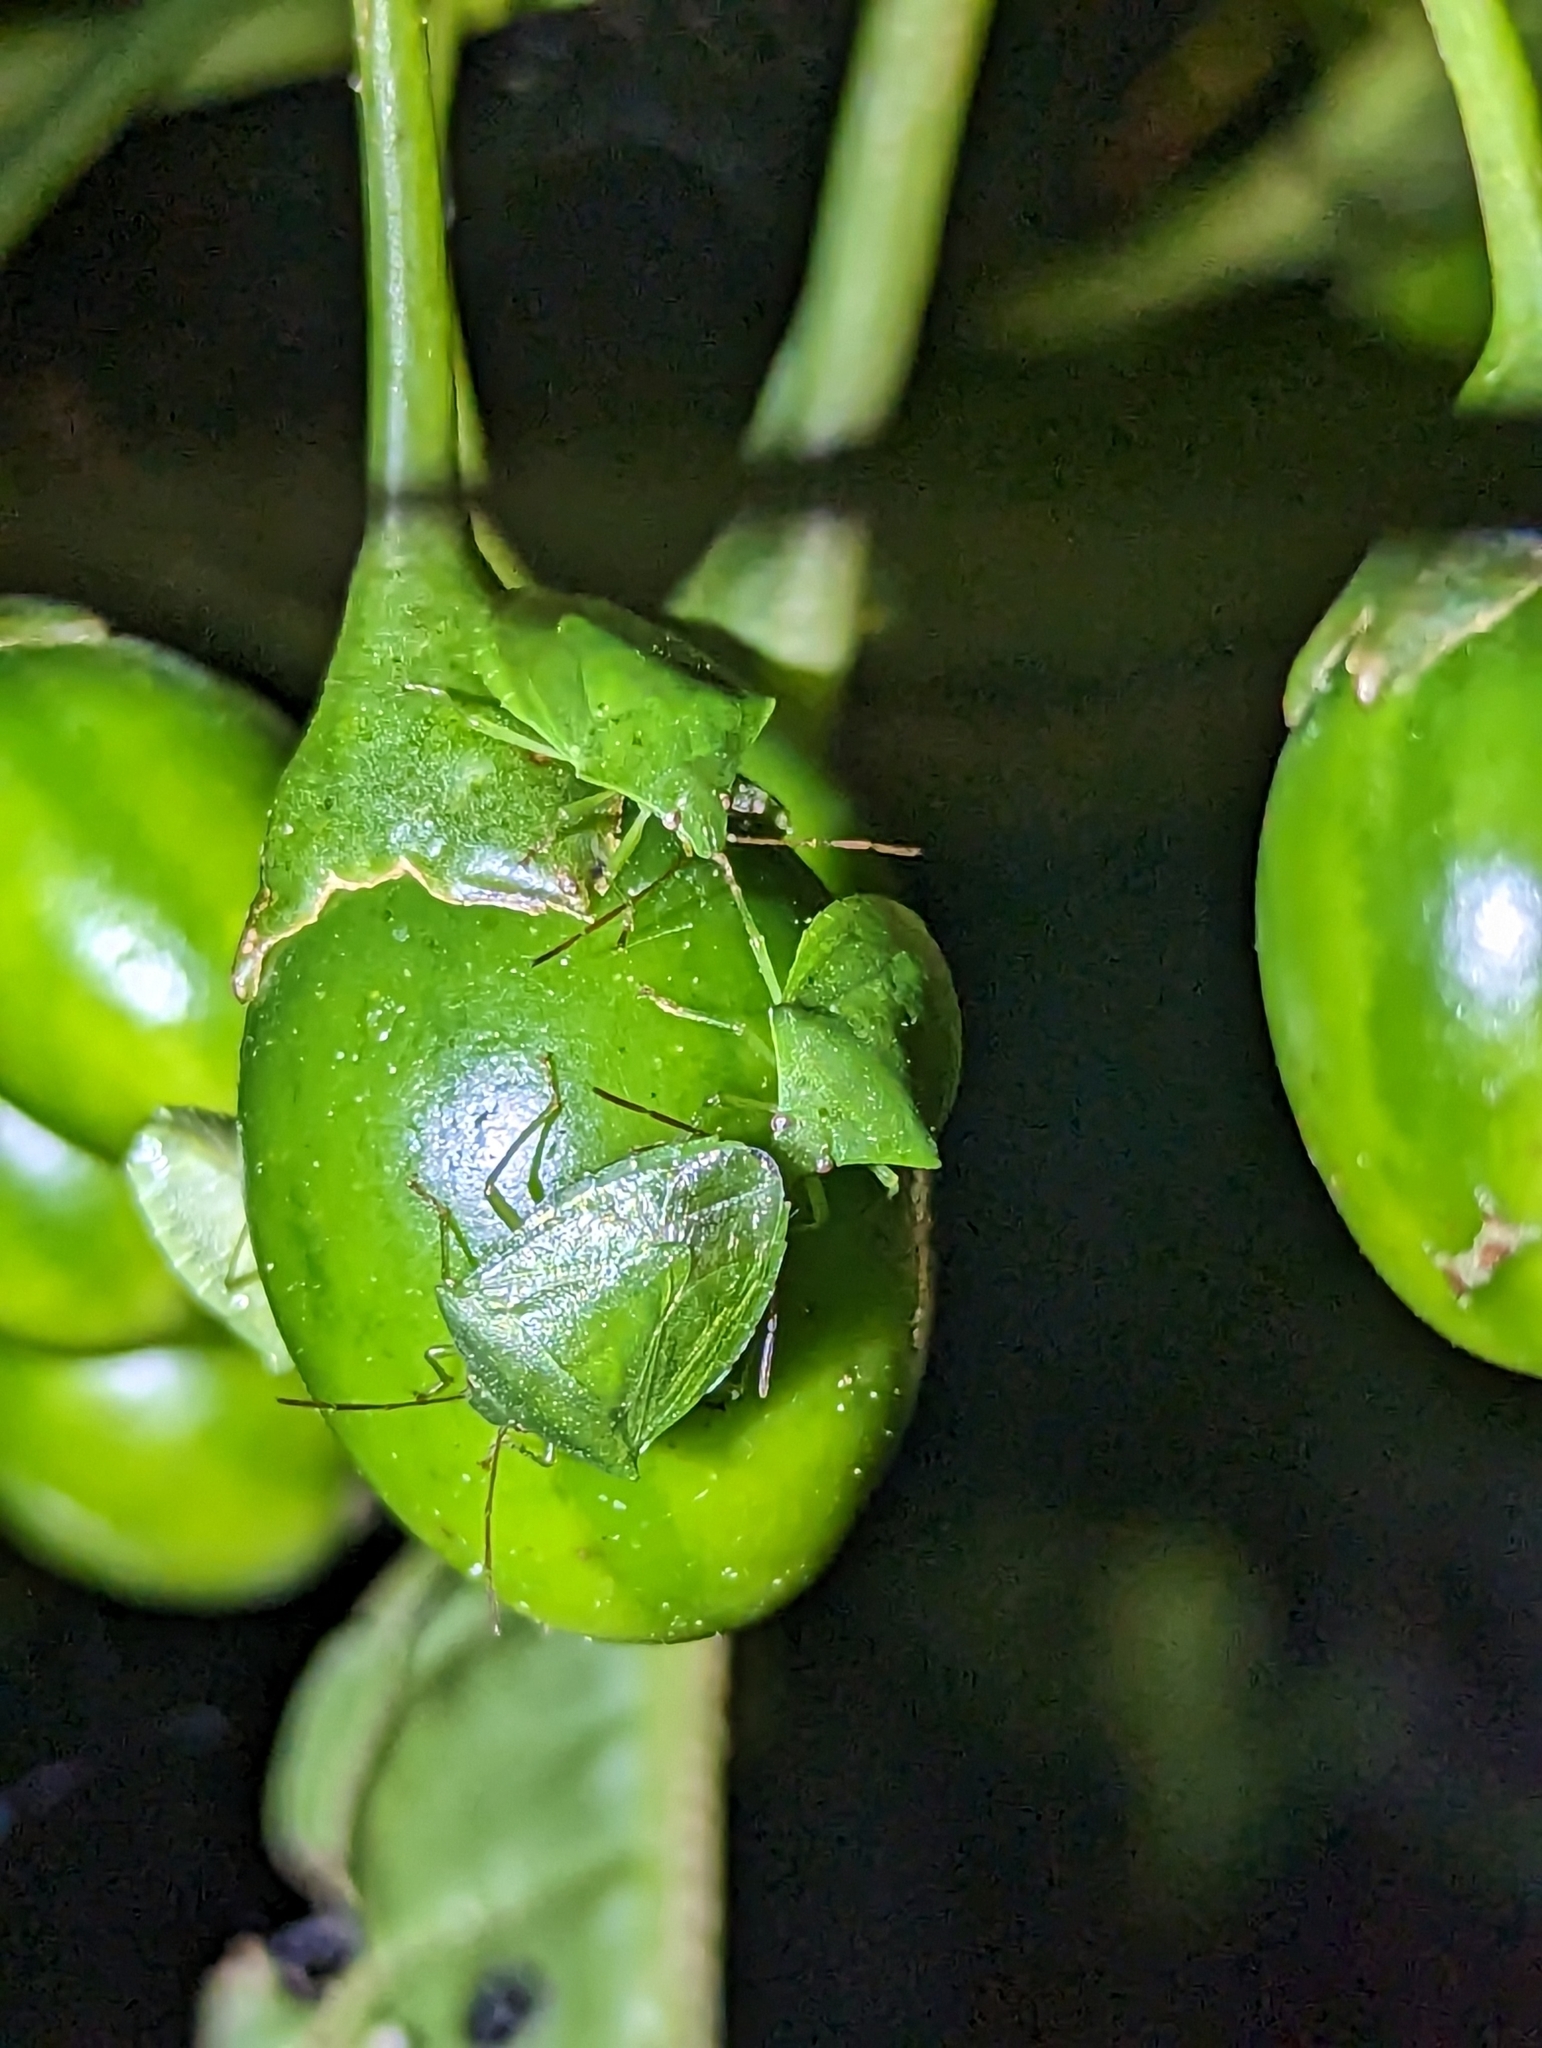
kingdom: Animalia
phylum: Arthropoda
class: Insecta
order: Hemiptera
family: Pentatomidae
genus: Cuspicona
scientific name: Cuspicona simplex
